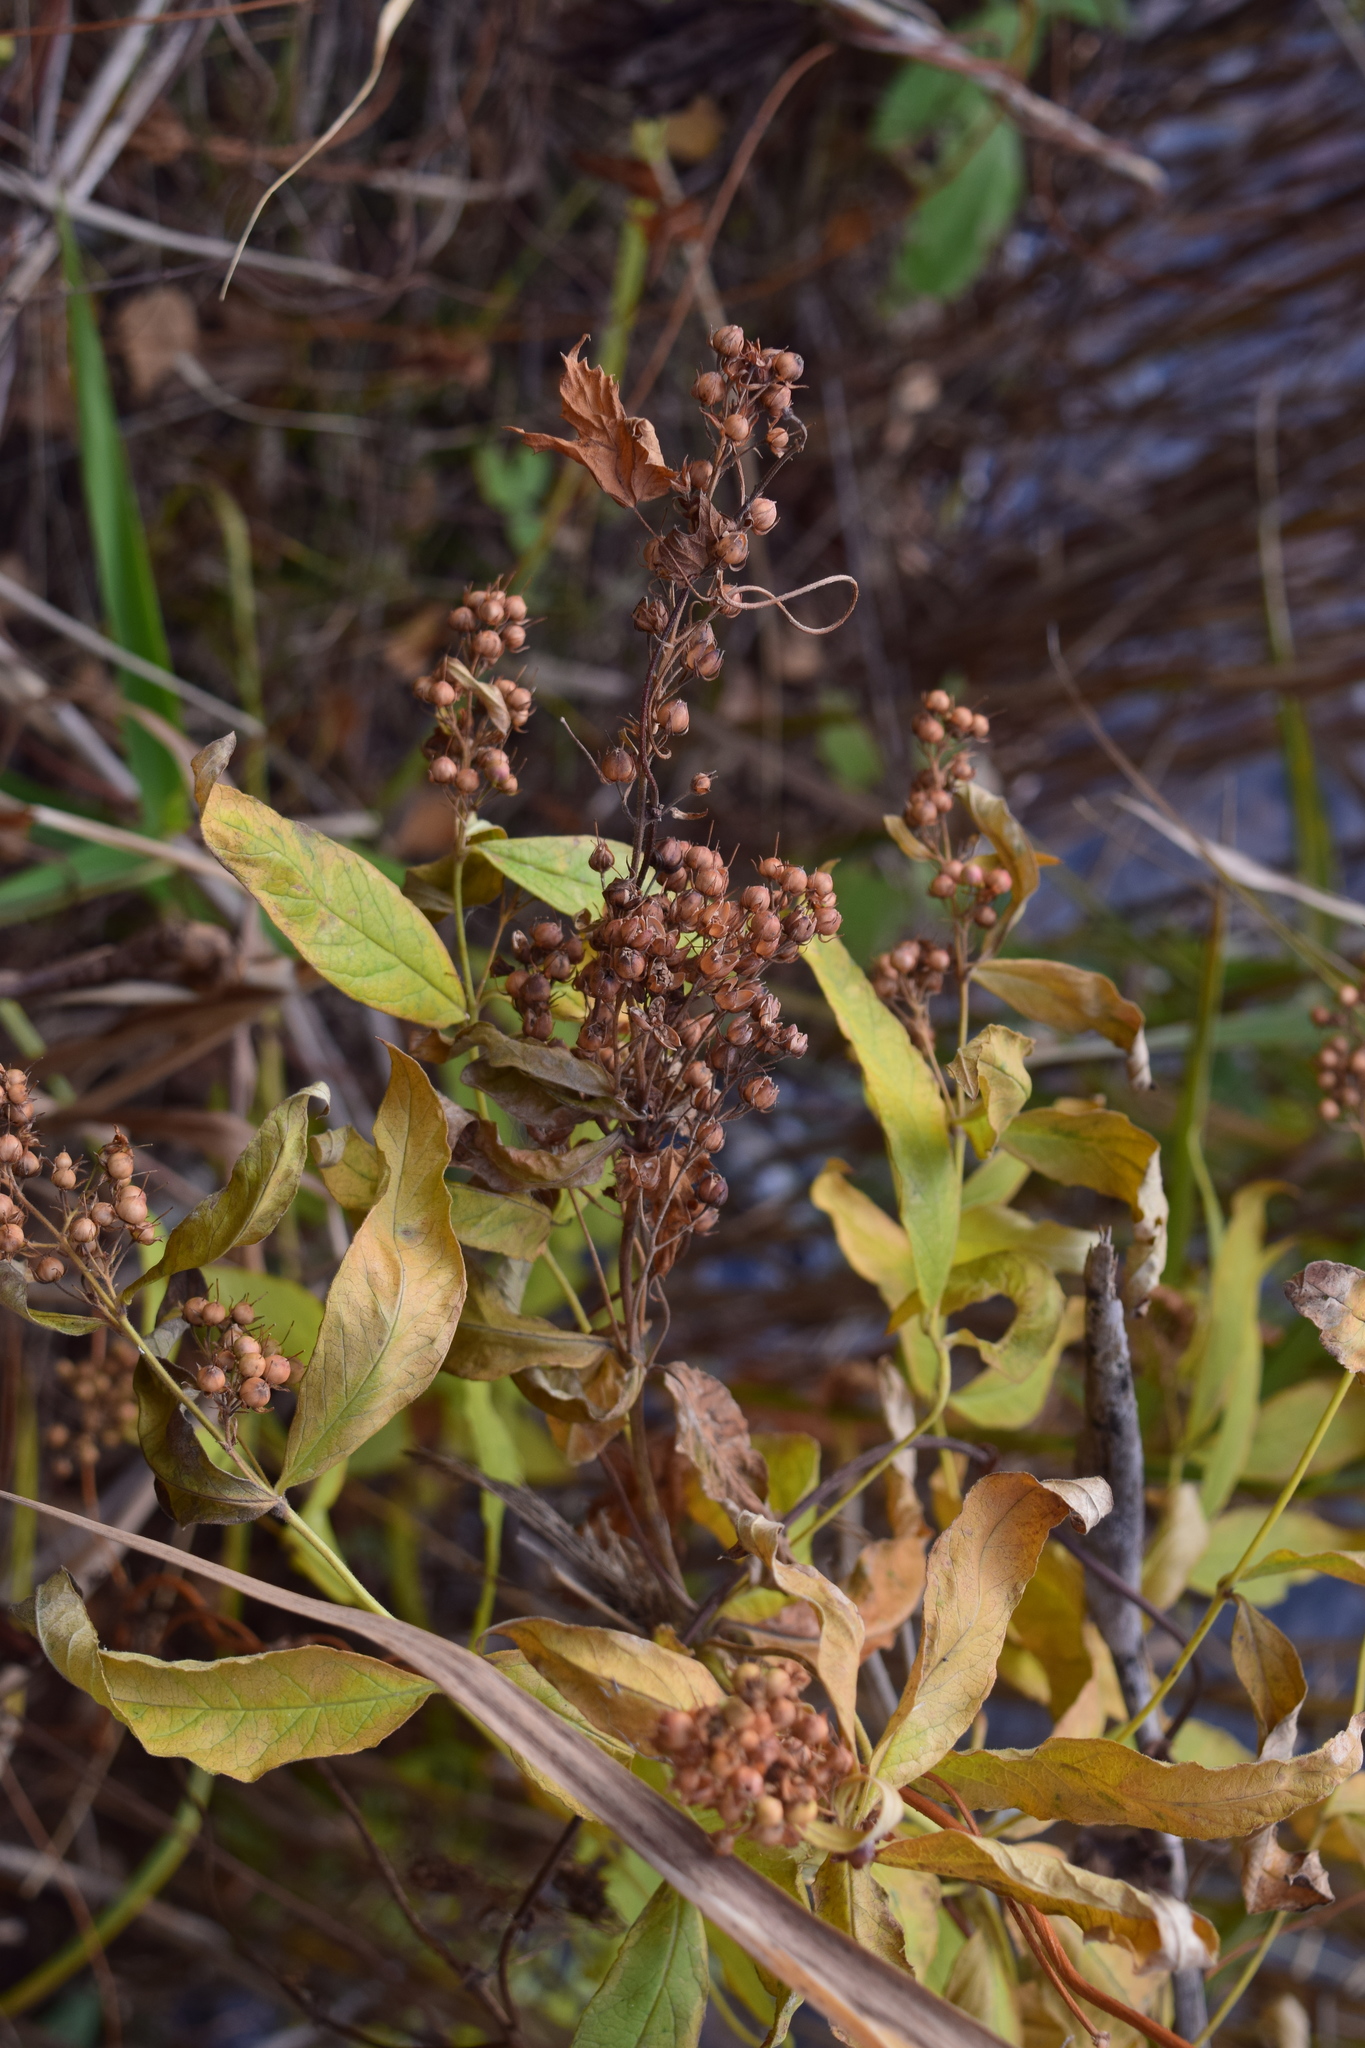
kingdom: Plantae
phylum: Tracheophyta
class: Magnoliopsida
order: Ericales
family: Primulaceae
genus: Lysimachia
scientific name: Lysimachia vulgaris
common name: Yellow loosestrife
